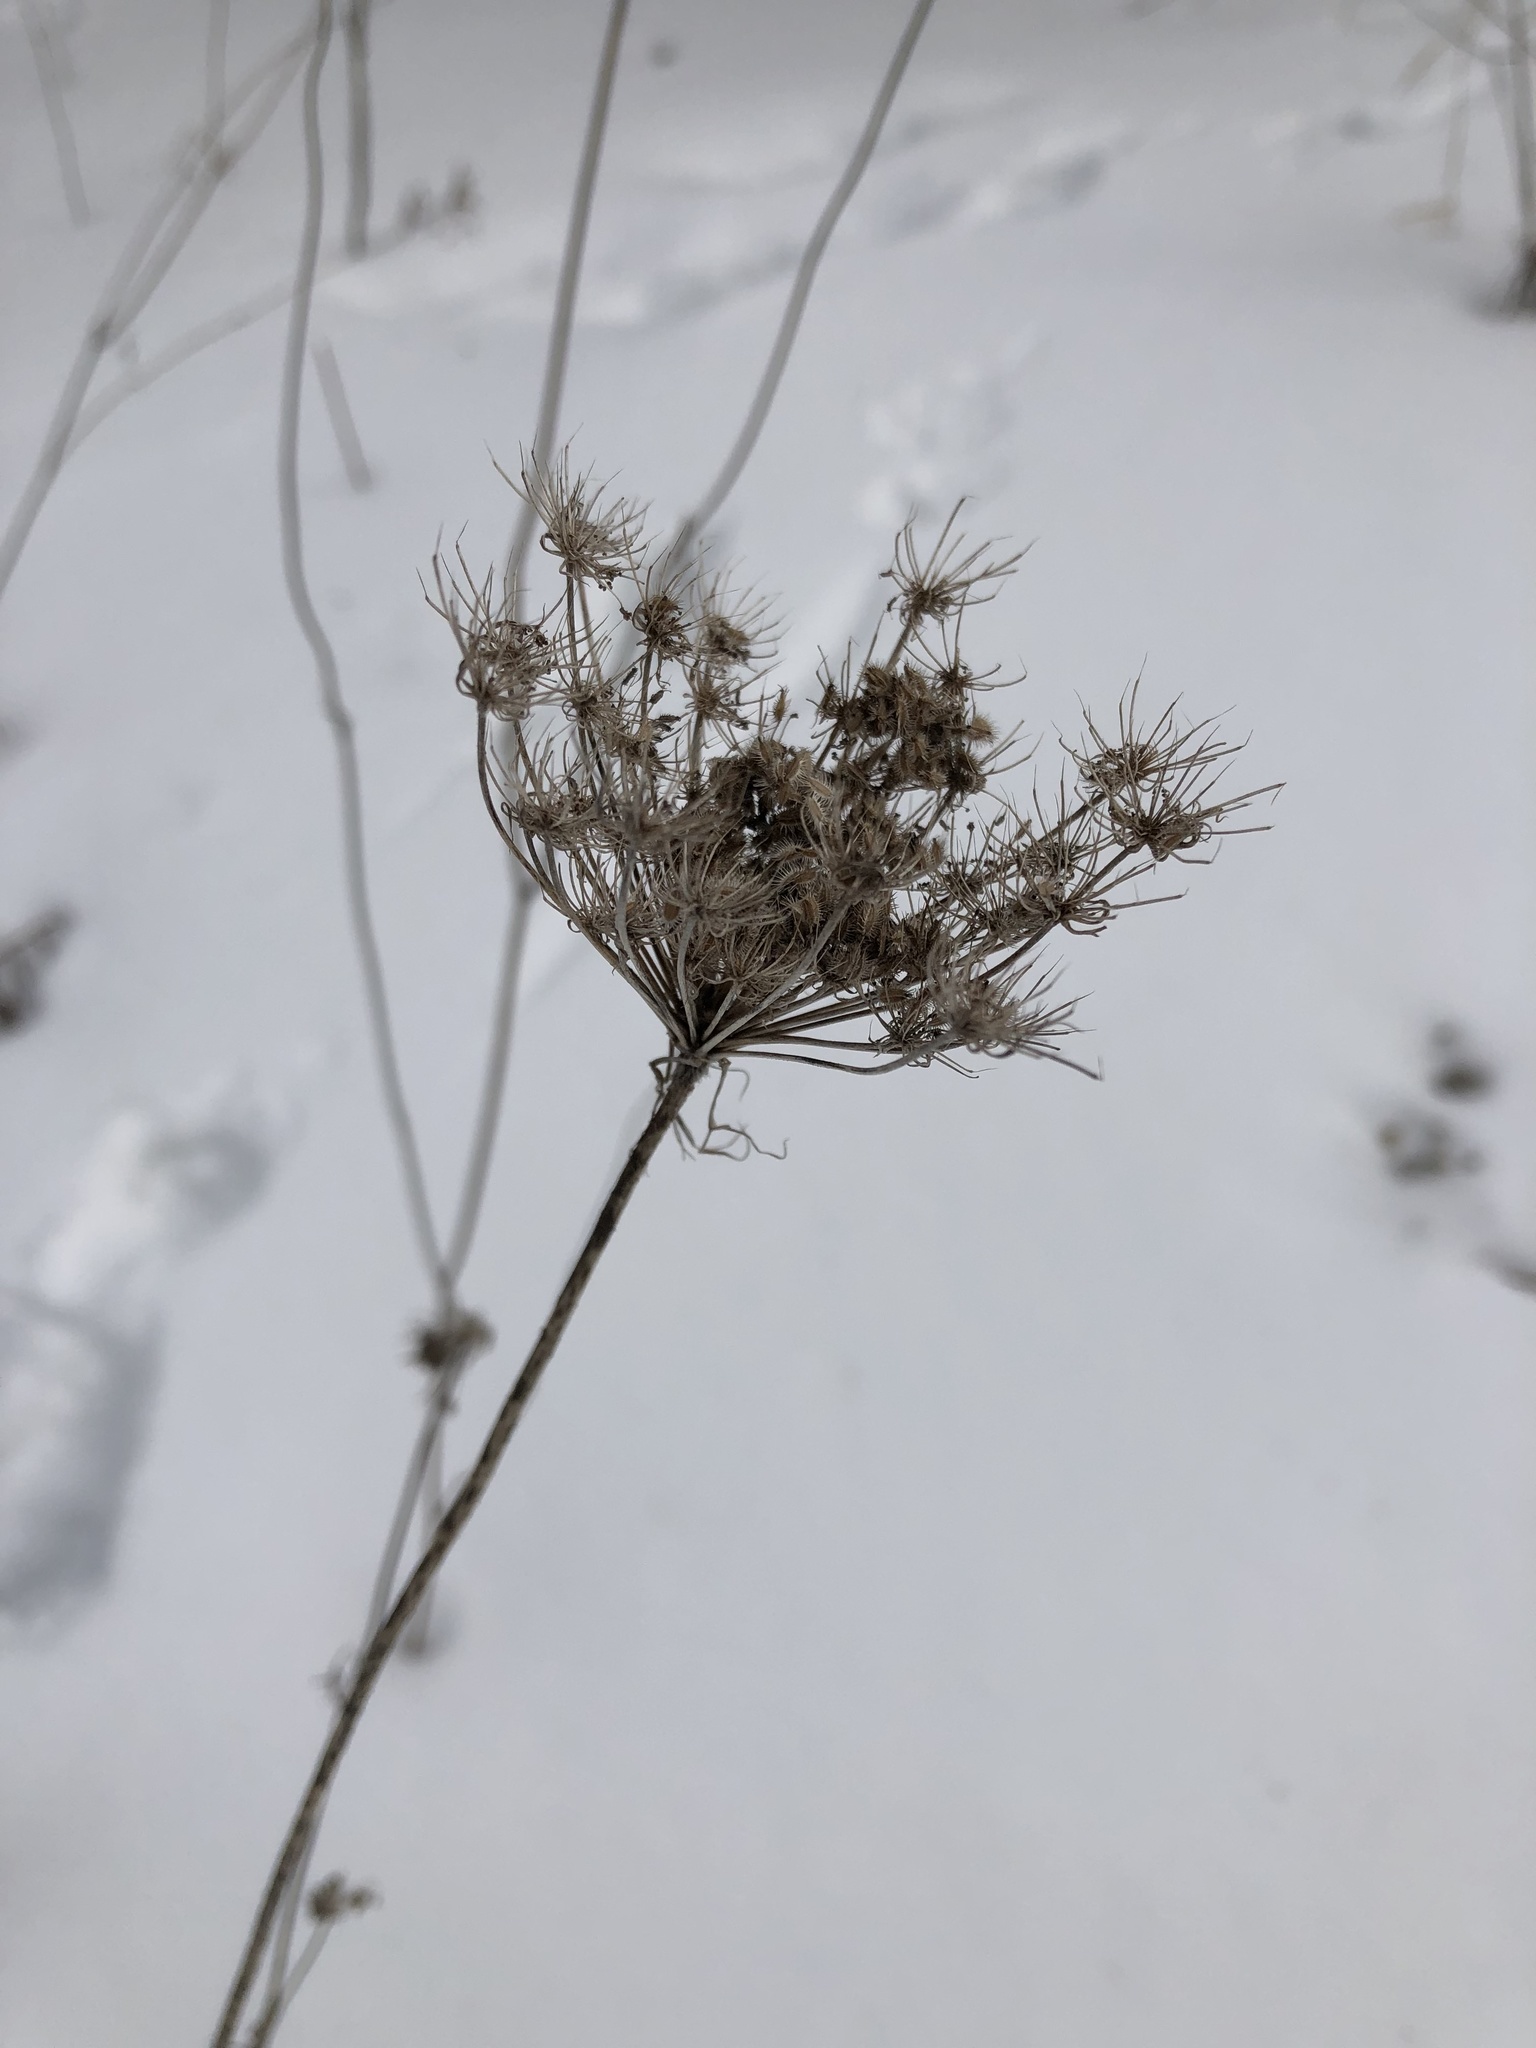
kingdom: Plantae
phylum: Tracheophyta
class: Magnoliopsida
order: Apiales
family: Apiaceae
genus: Daucus
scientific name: Daucus carota
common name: Wild carrot
